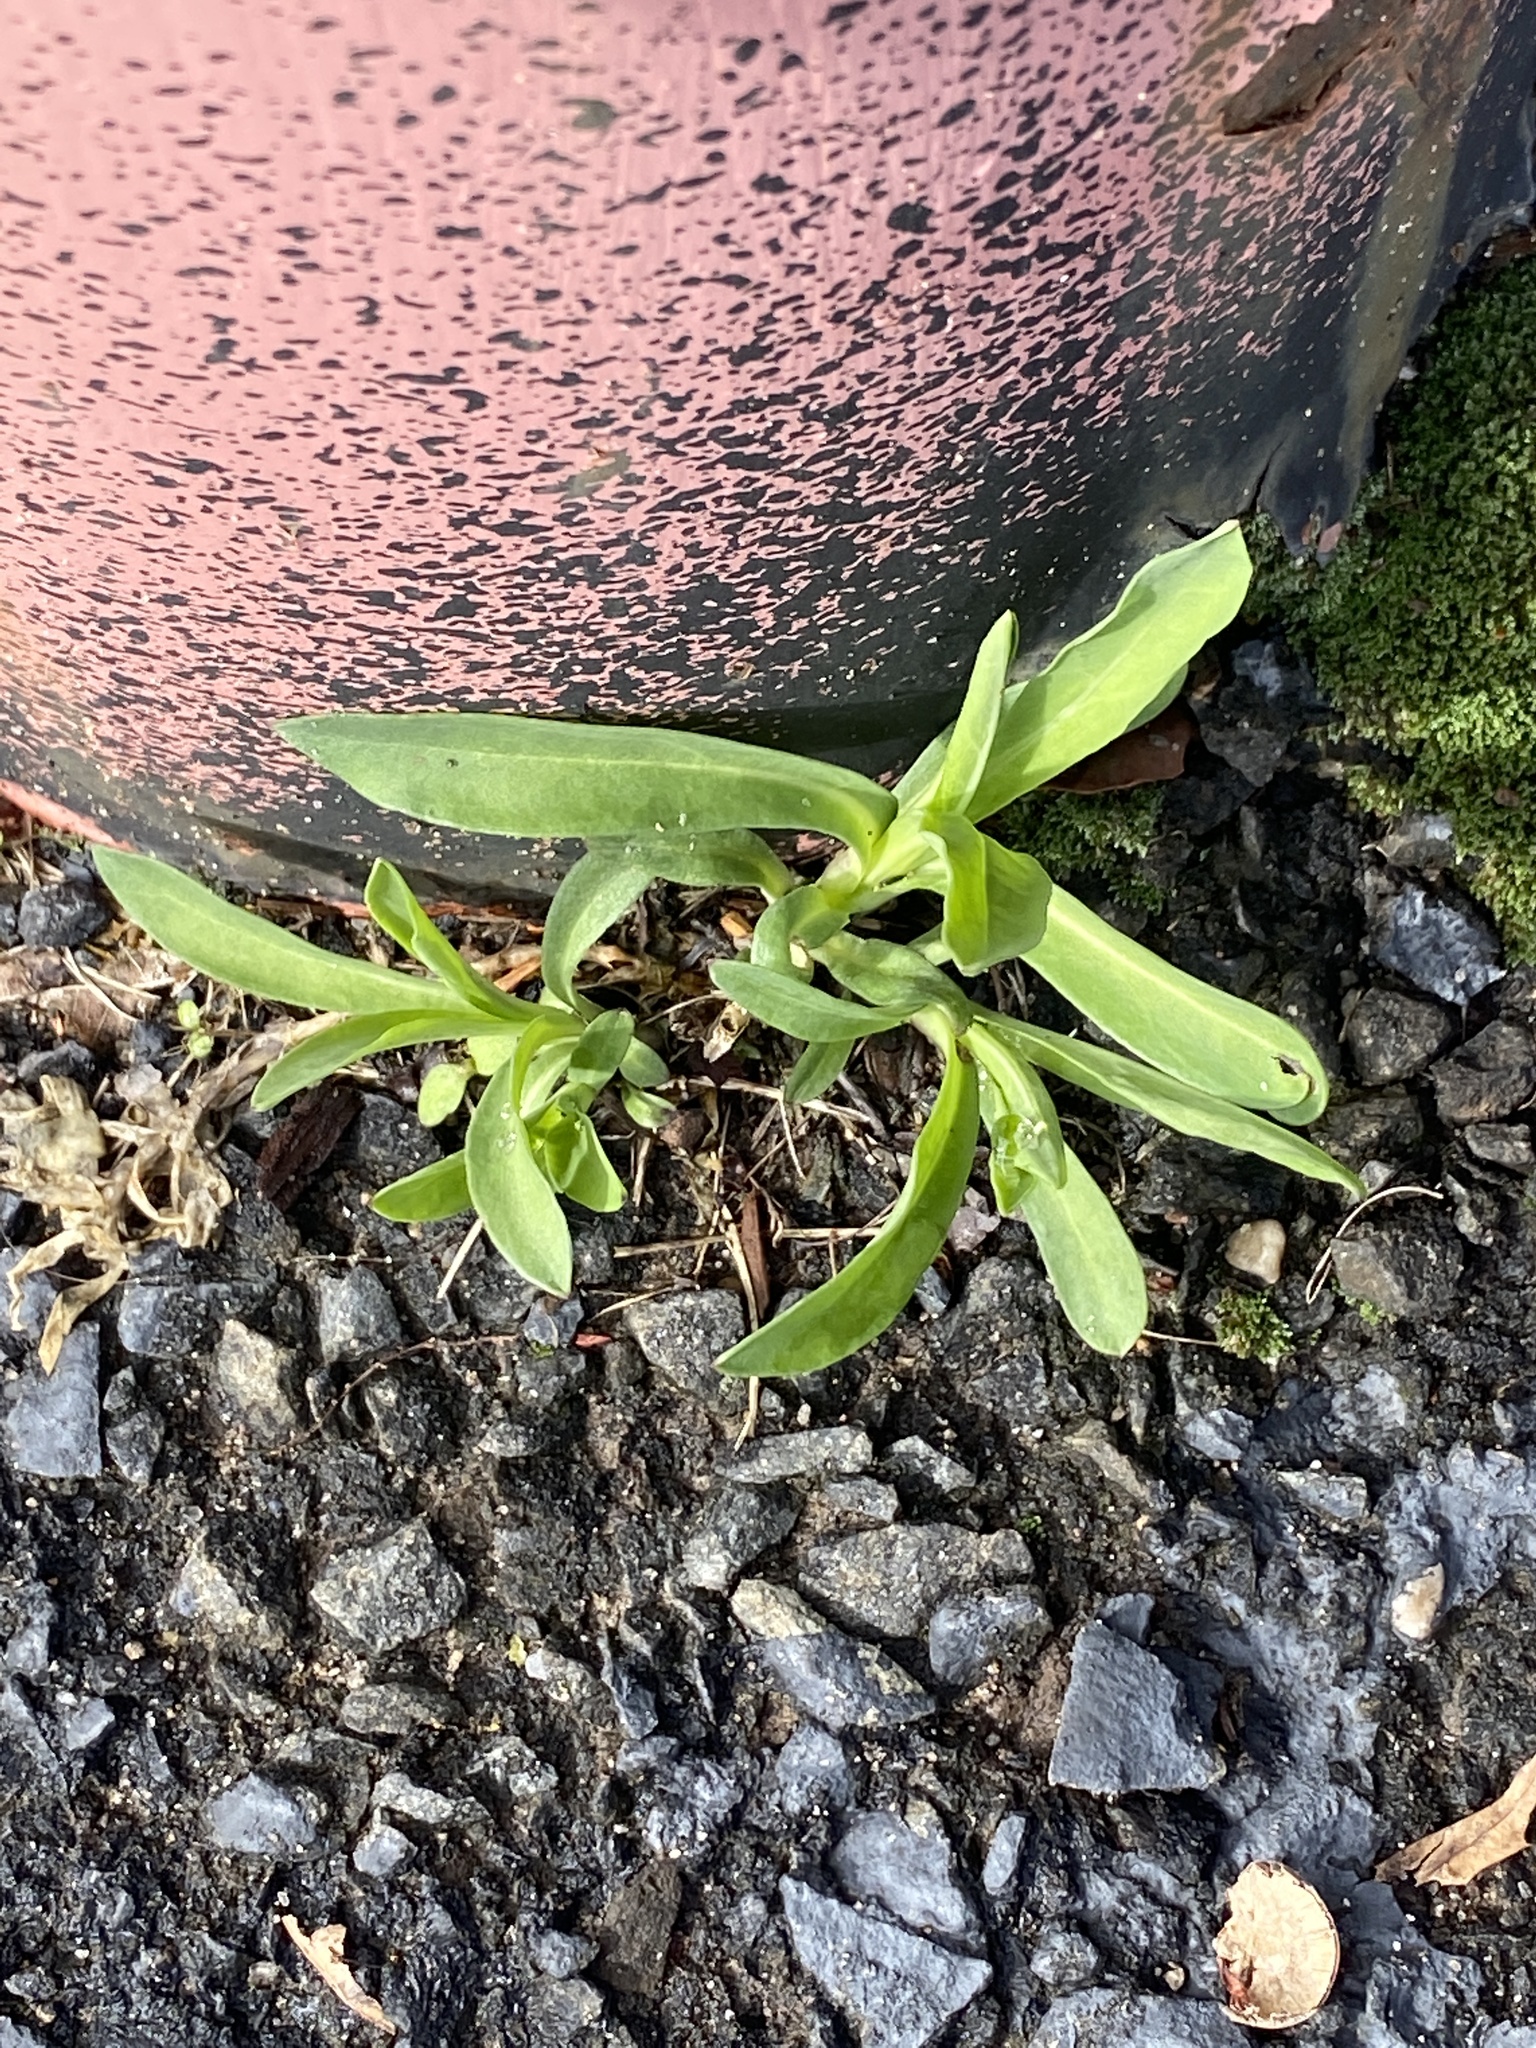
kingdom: Plantae
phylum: Tracheophyta
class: Magnoliopsida
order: Caryophyllales
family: Caryophyllaceae
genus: Silene
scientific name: Silene vulgaris
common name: Bladder campion
